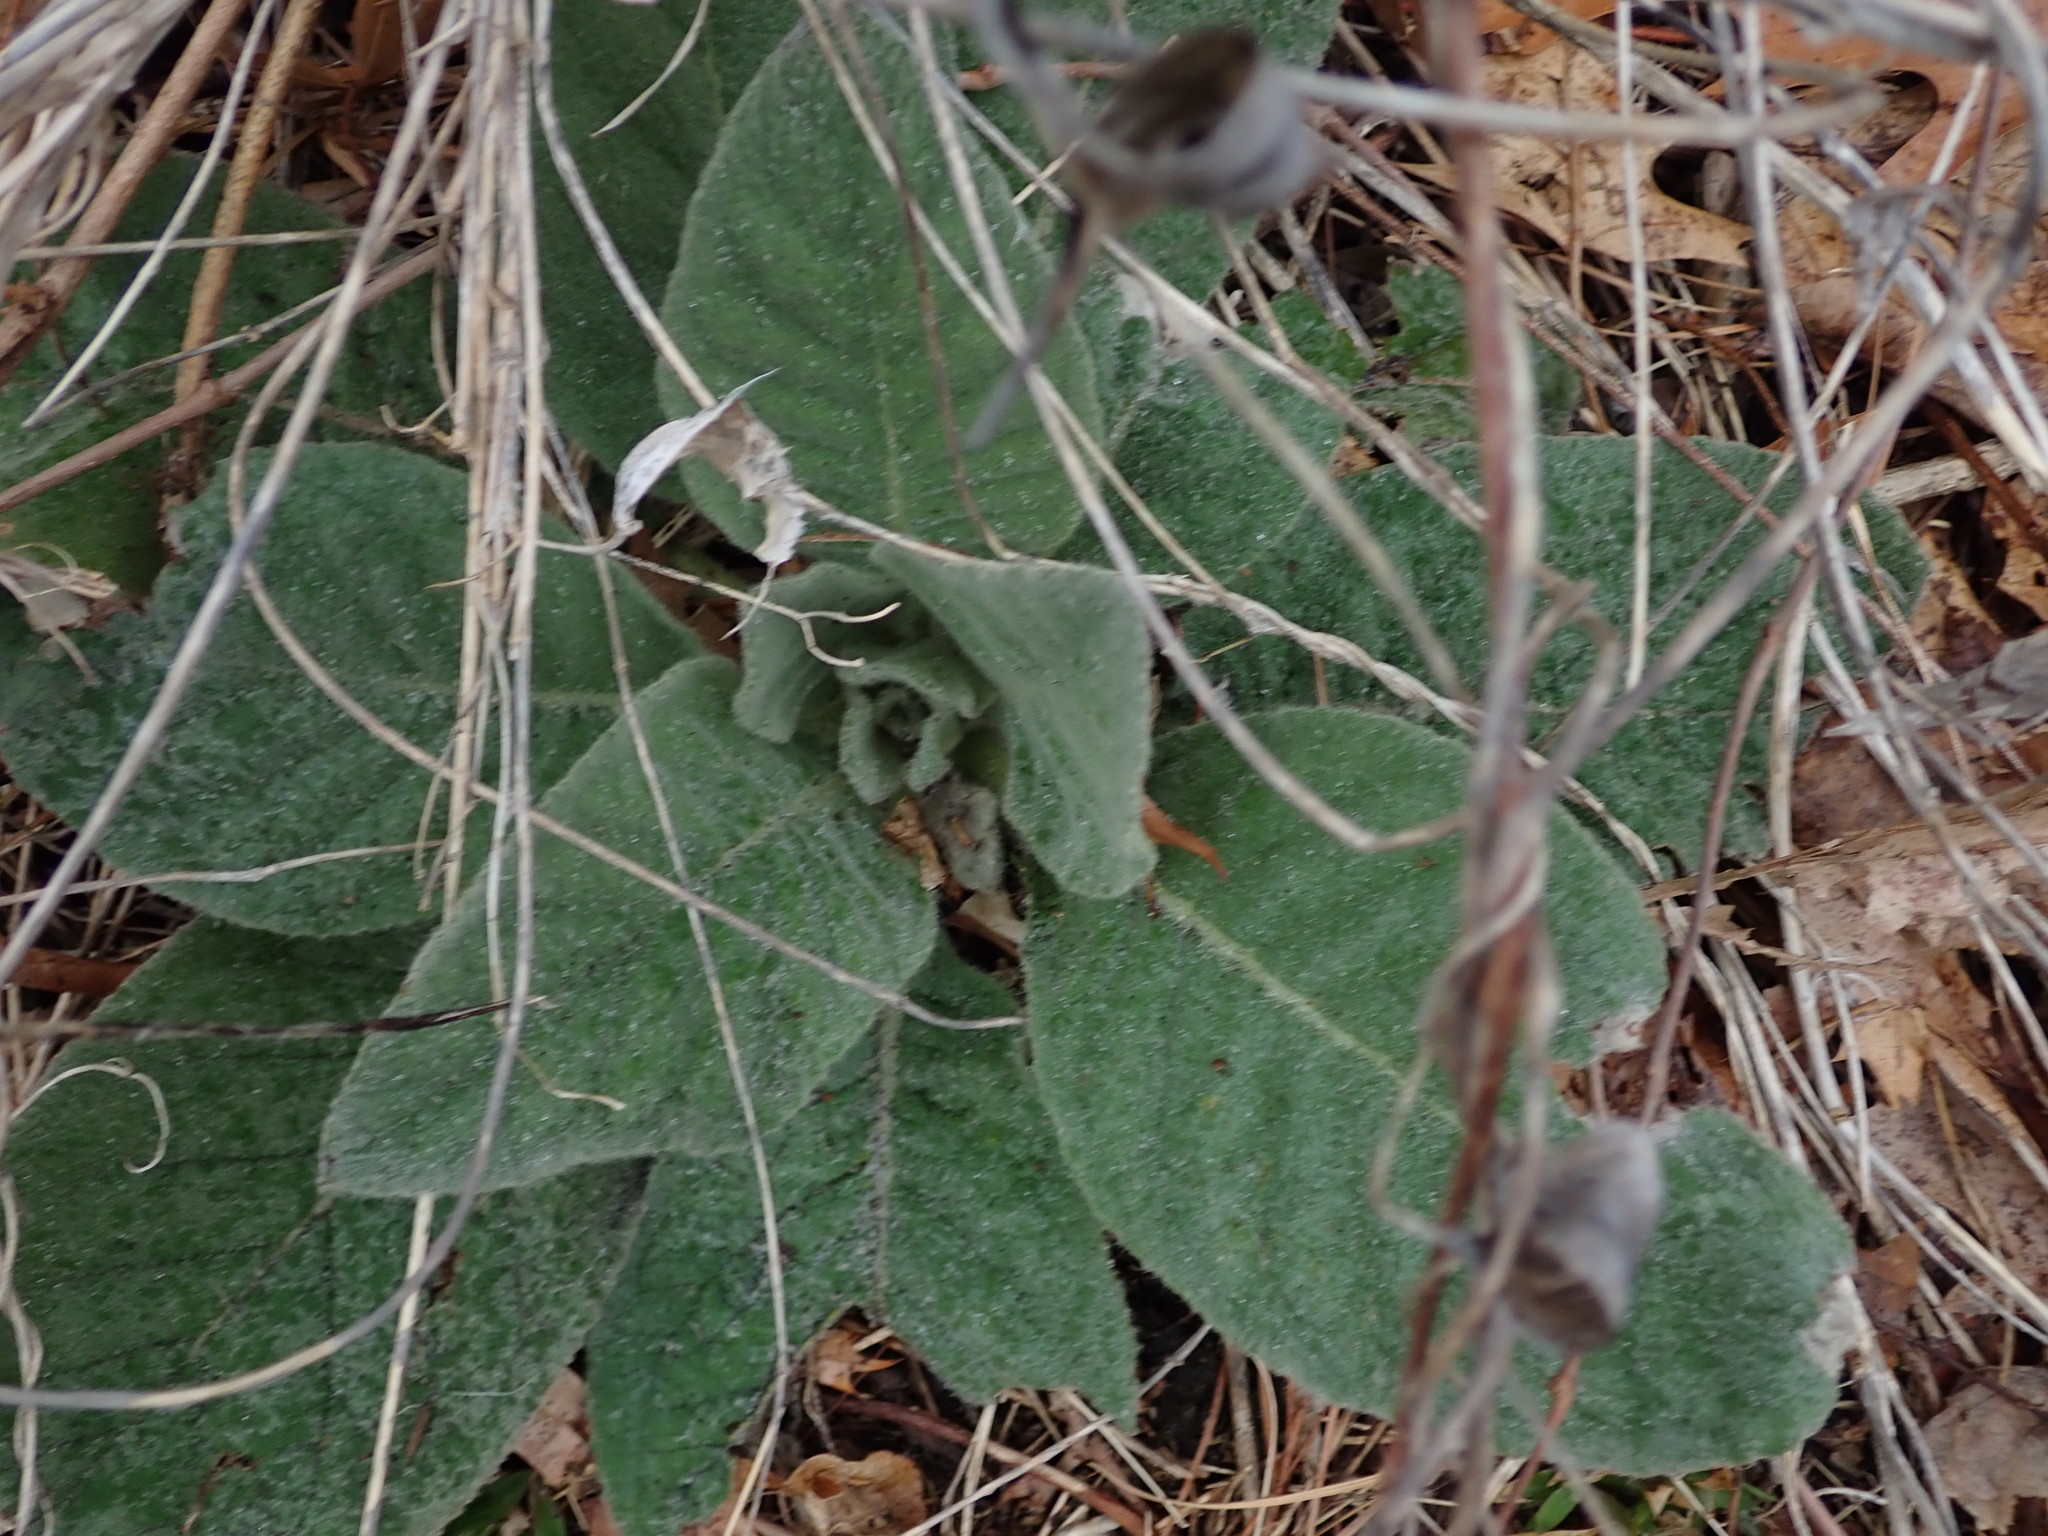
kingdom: Plantae
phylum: Tracheophyta
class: Magnoliopsida
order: Lamiales
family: Scrophulariaceae
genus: Verbascum
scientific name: Verbascum thapsus
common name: Common mullein
